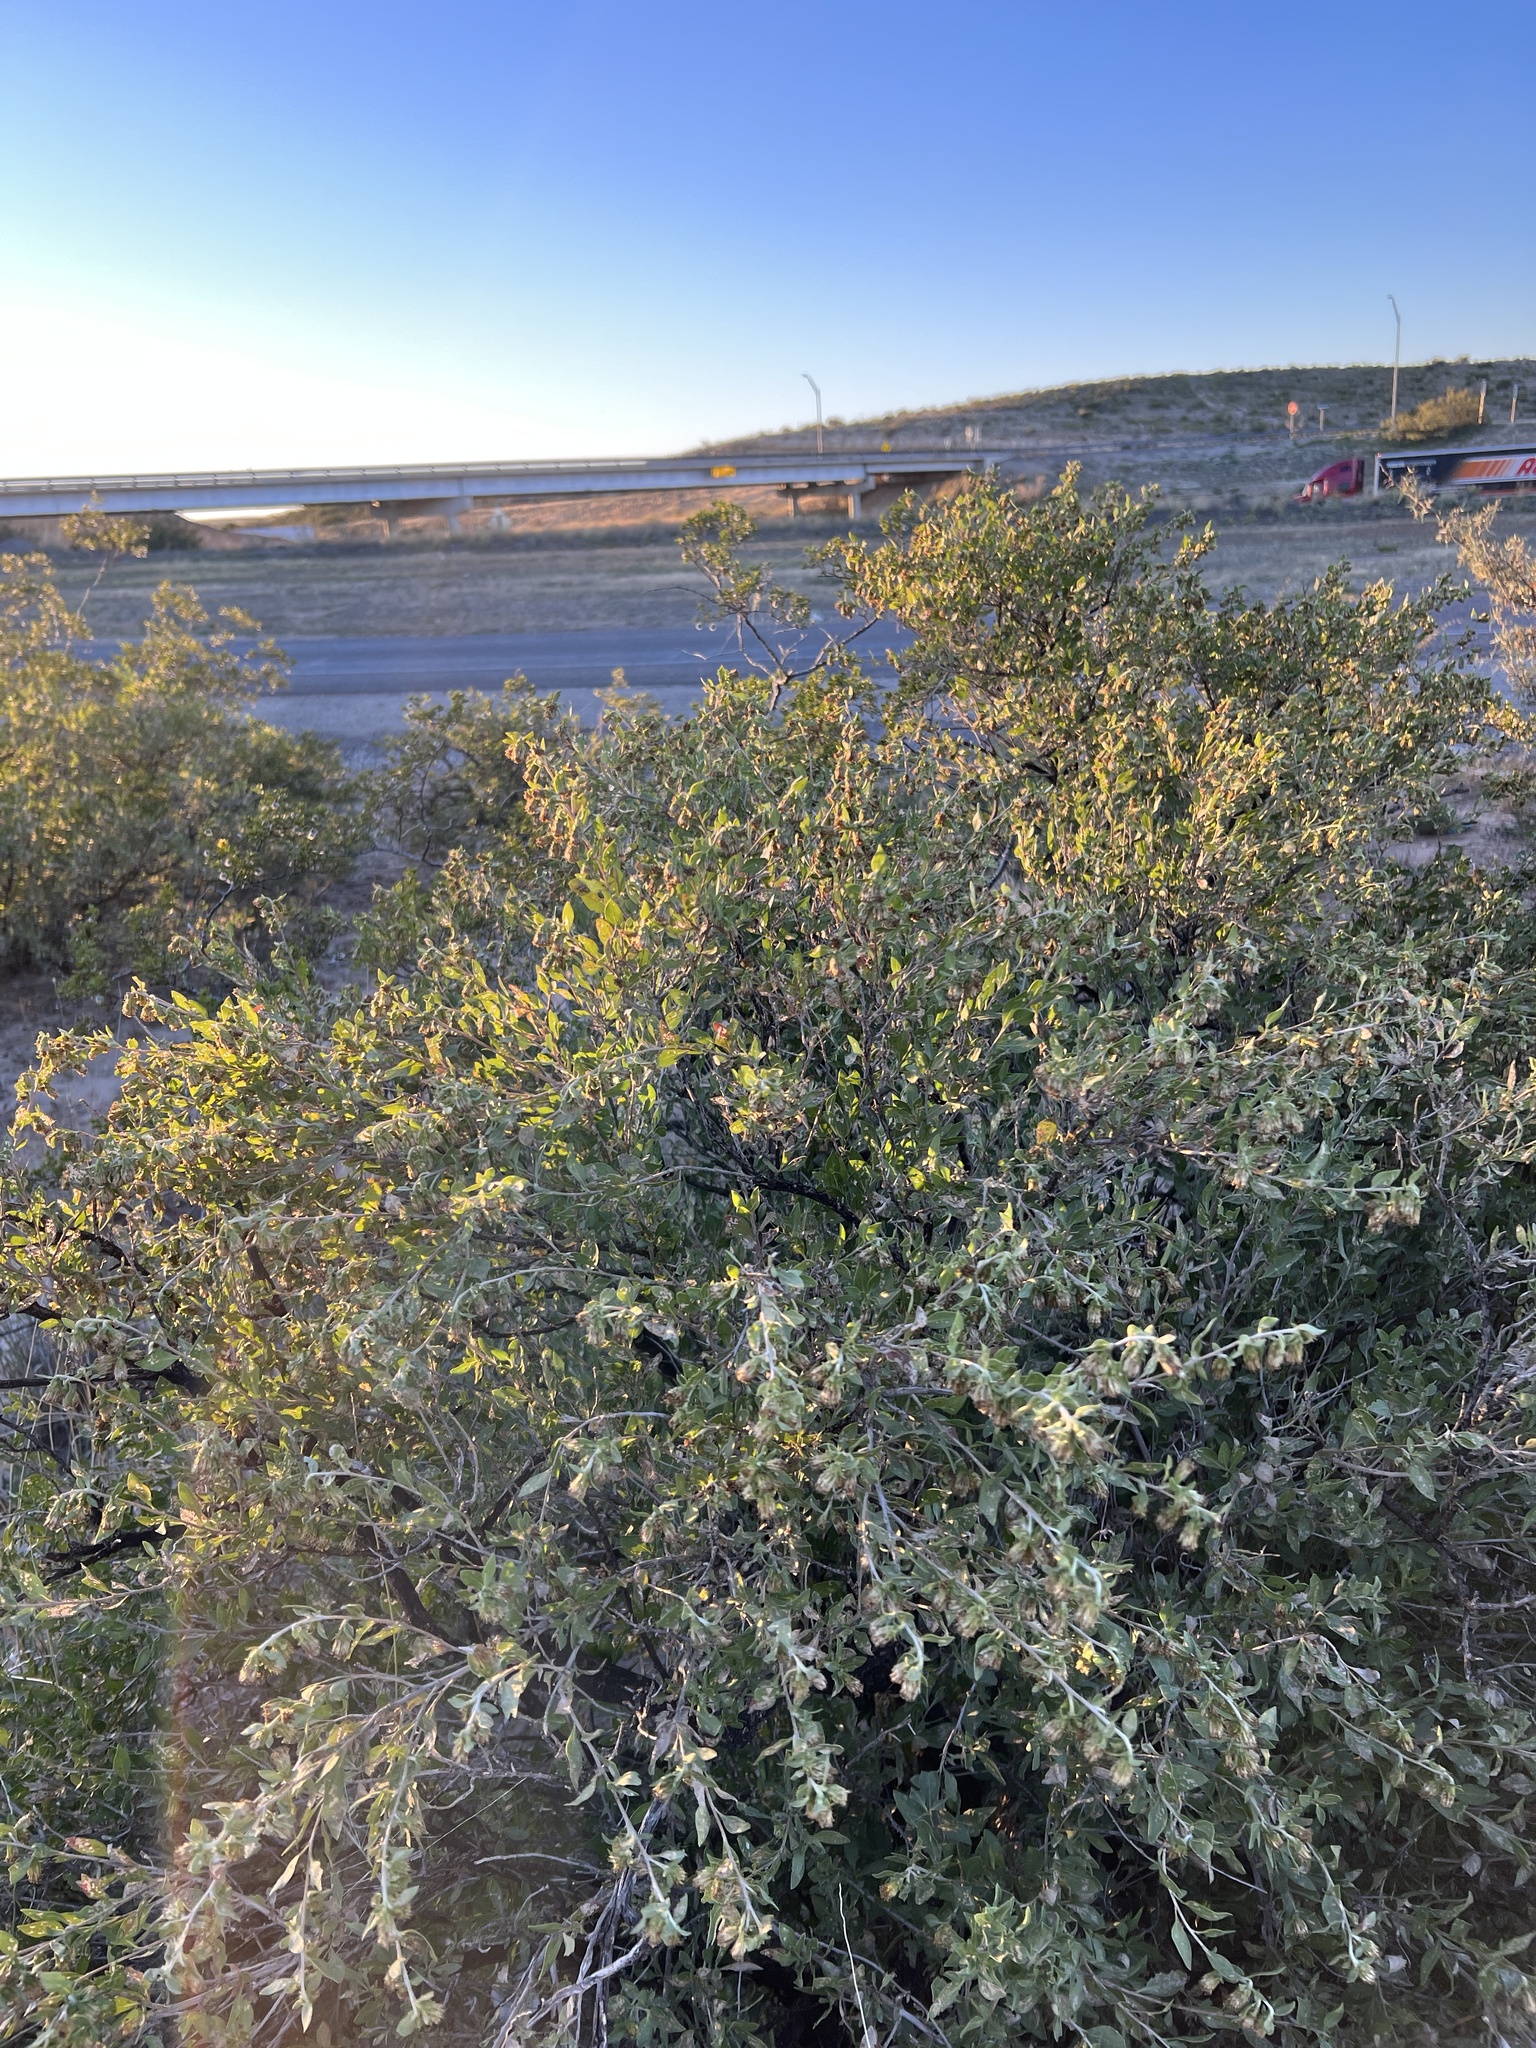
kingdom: Plantae
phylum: Tracheophyta
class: Magnoliopsida
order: Asterales
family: Asteraceae
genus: Flourensia
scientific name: Flourensia cernua
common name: Varnishbush
